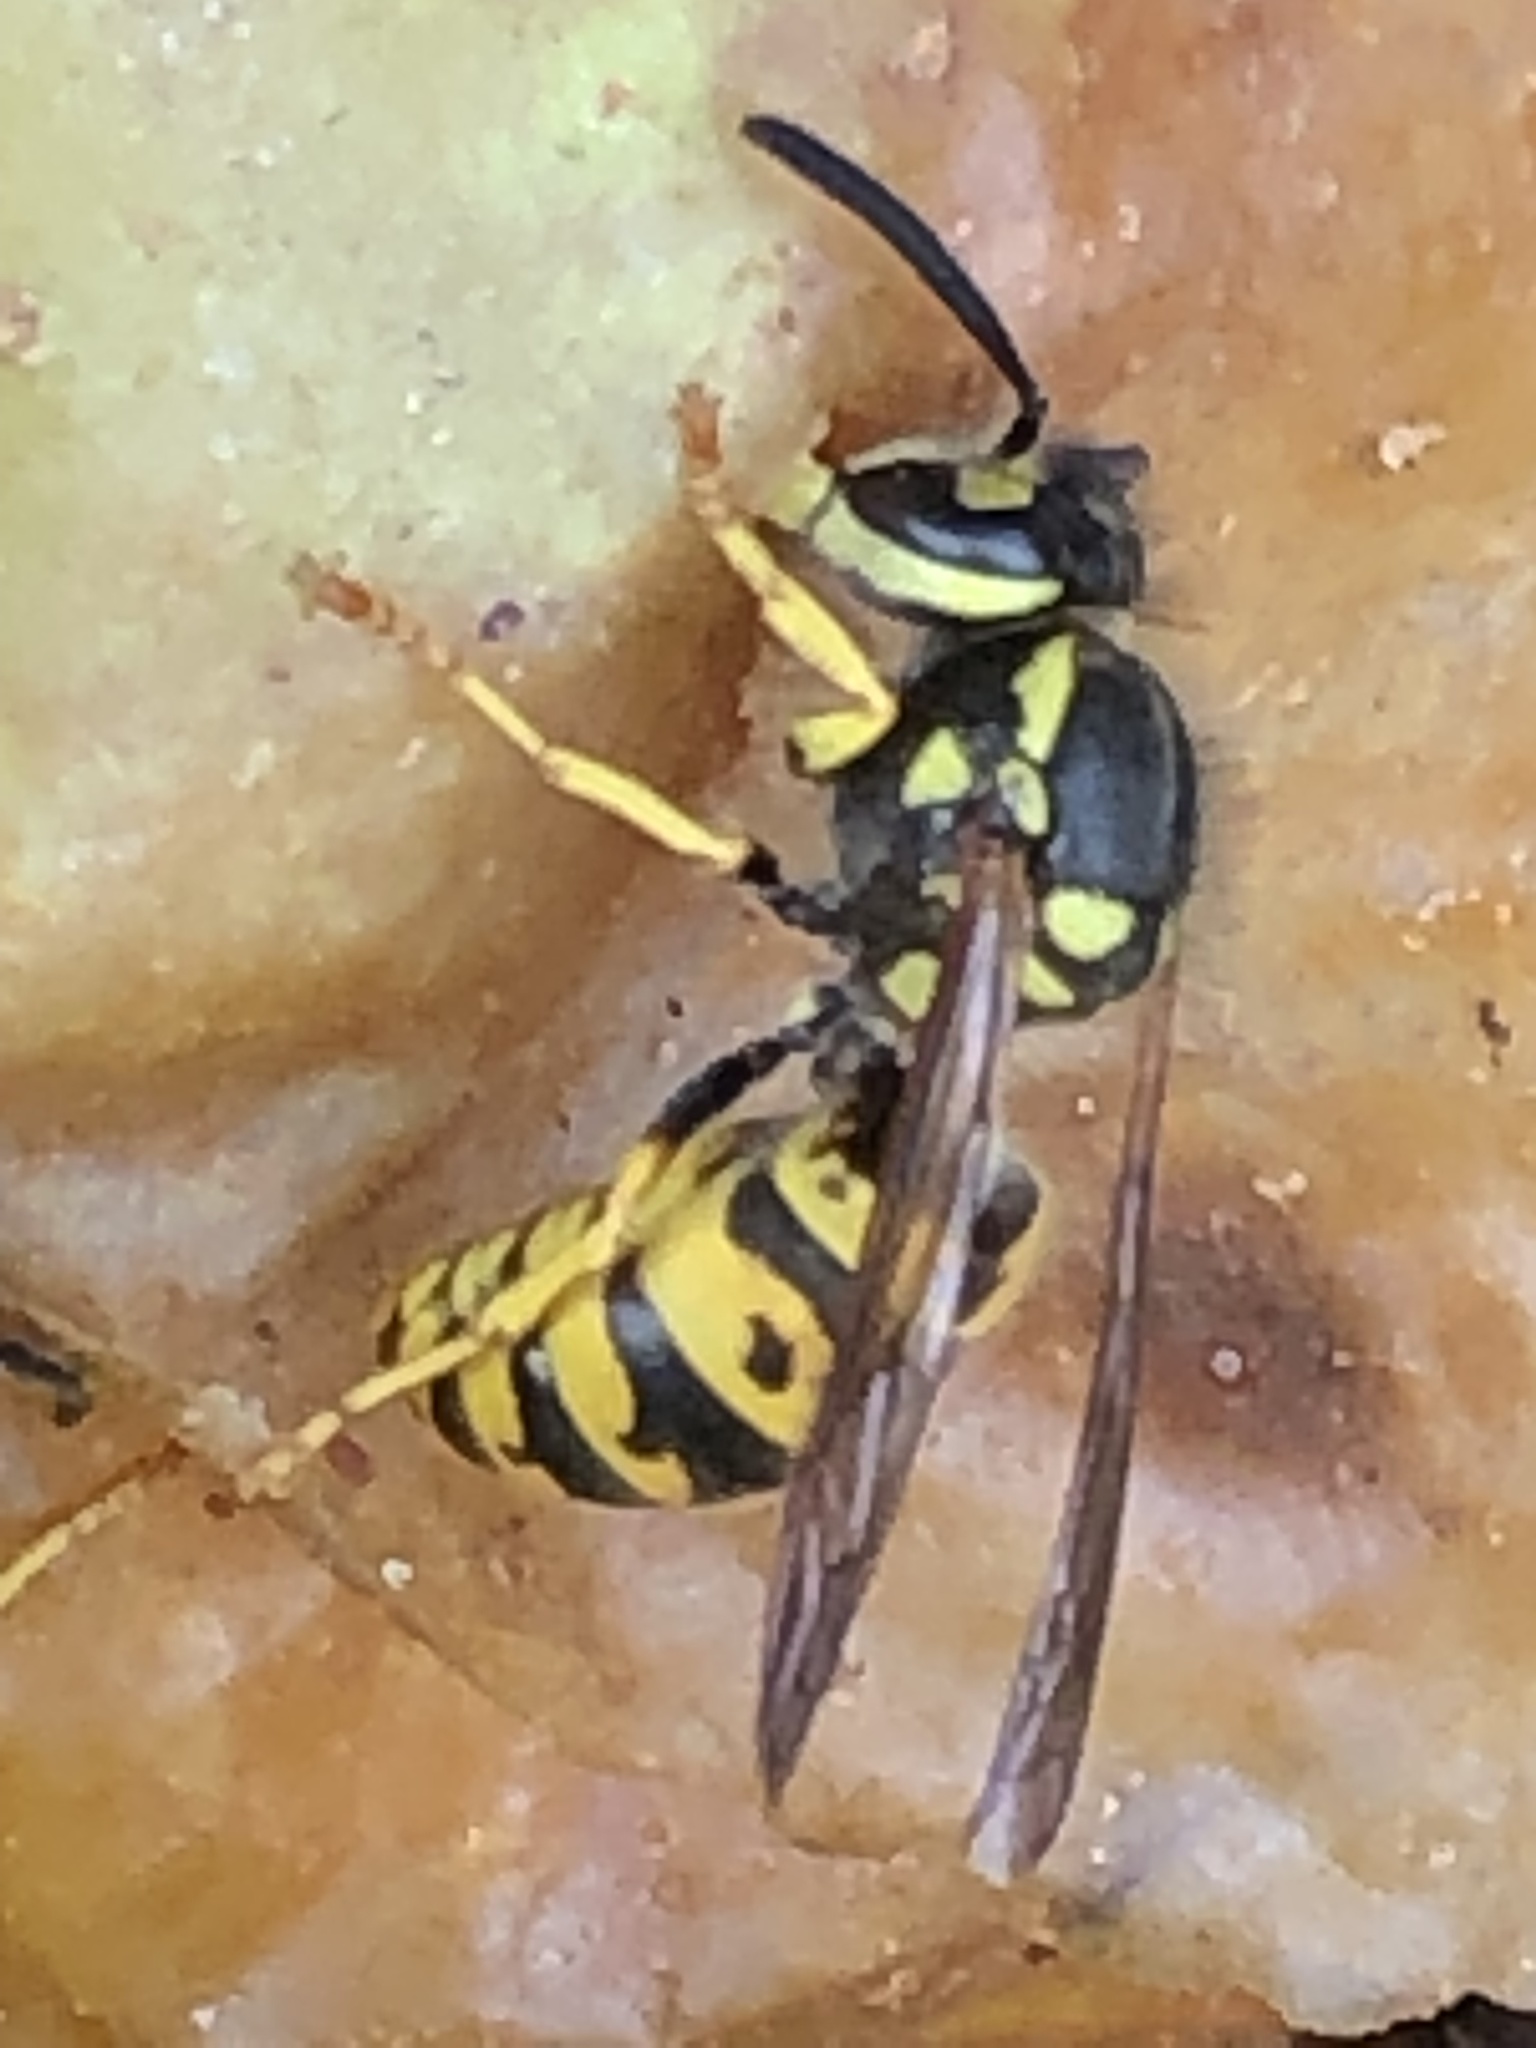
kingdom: Animalia
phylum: Arthropoda
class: Insecta
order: Hymenoptera
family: Vespidae
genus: Vespula
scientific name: Vespula germanica
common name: German wasp
